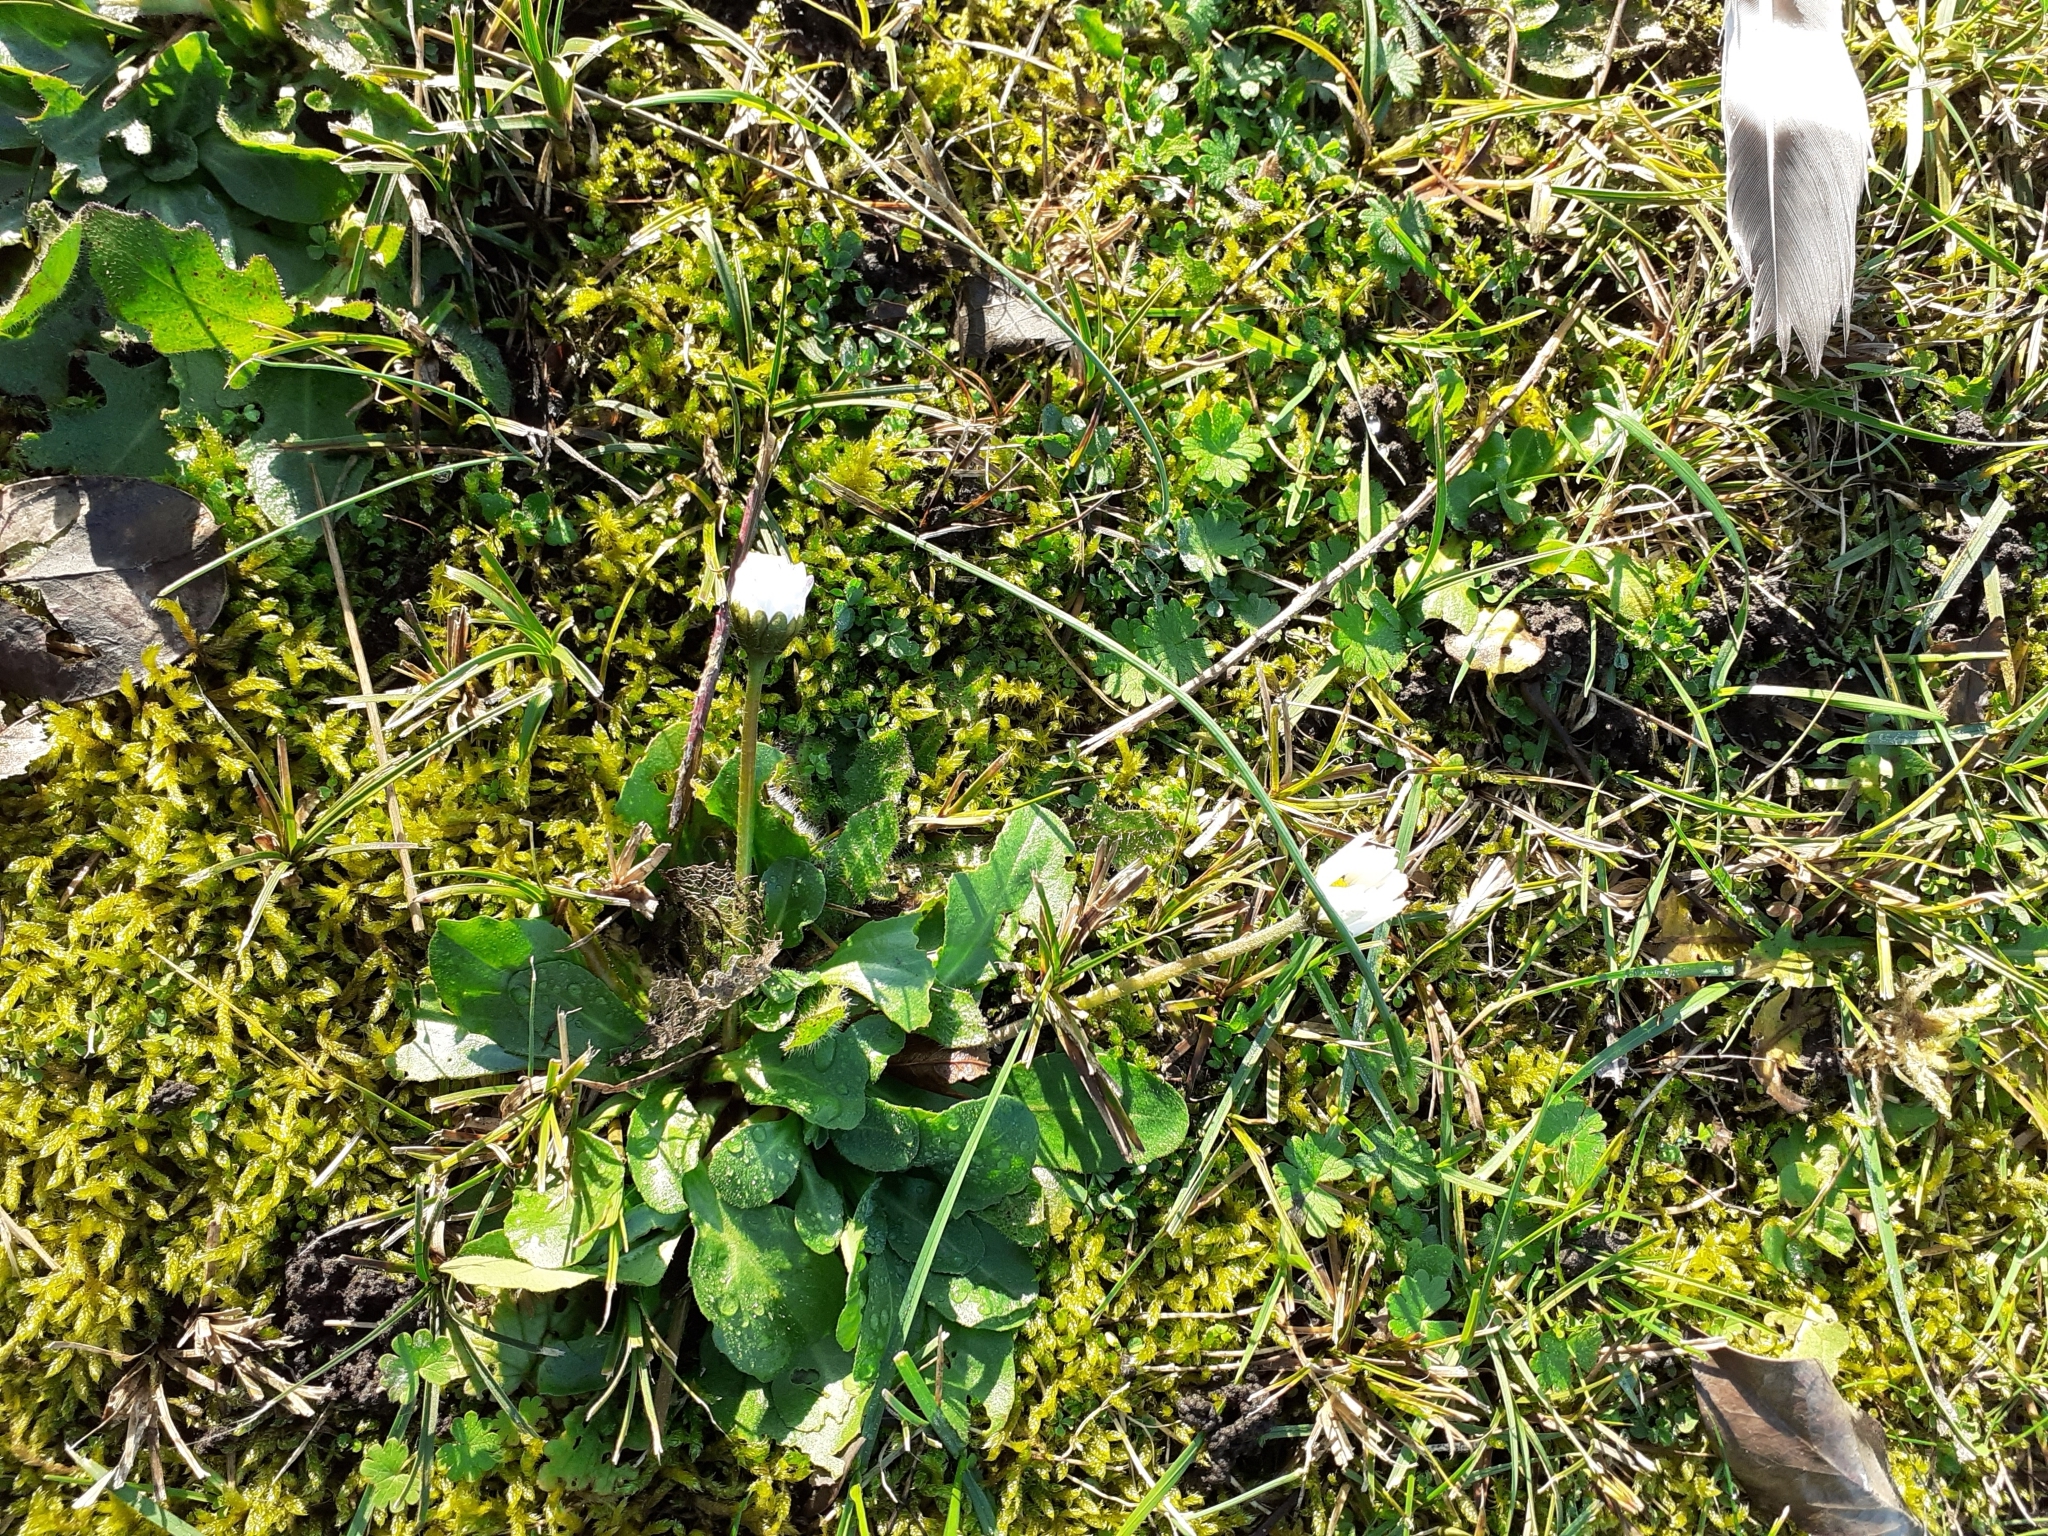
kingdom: Plantae
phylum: Tracheophyta
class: Magnoliopsida
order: Asterales
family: Asteraceae
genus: Bellis
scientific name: Bellis perennis
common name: Lawndaisy
